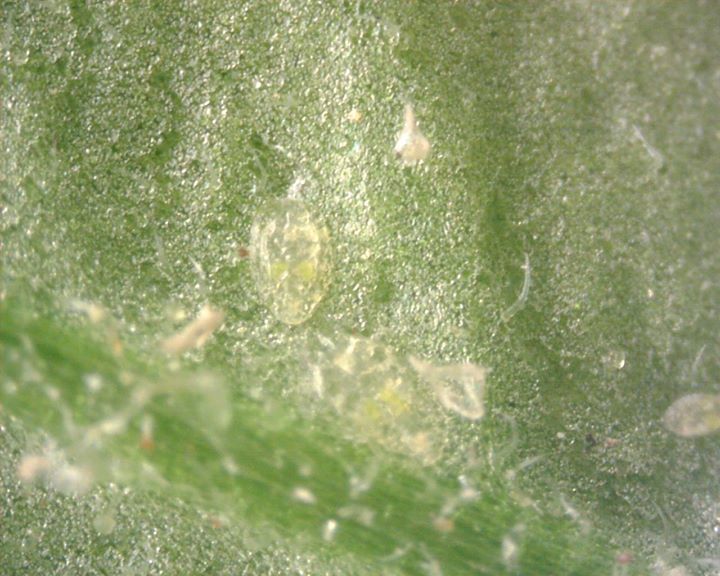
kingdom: Animalia
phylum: Arthropoda
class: Insecta
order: Hemiptera
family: Aleyrodidae
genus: Bemisia
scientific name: Bemisia tabaci
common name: Sweetpotato whitefly
